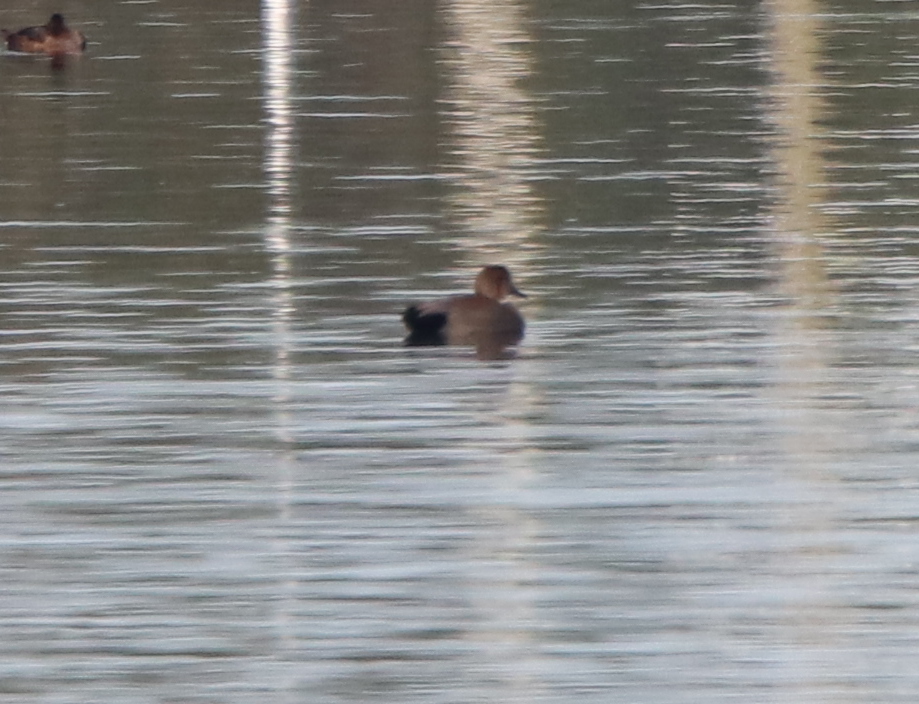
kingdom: Animalia
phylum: Chordata
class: Aves
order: Anseriformes
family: Anatidae
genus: Mareca
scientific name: Mareca strepera
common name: Gadwall
